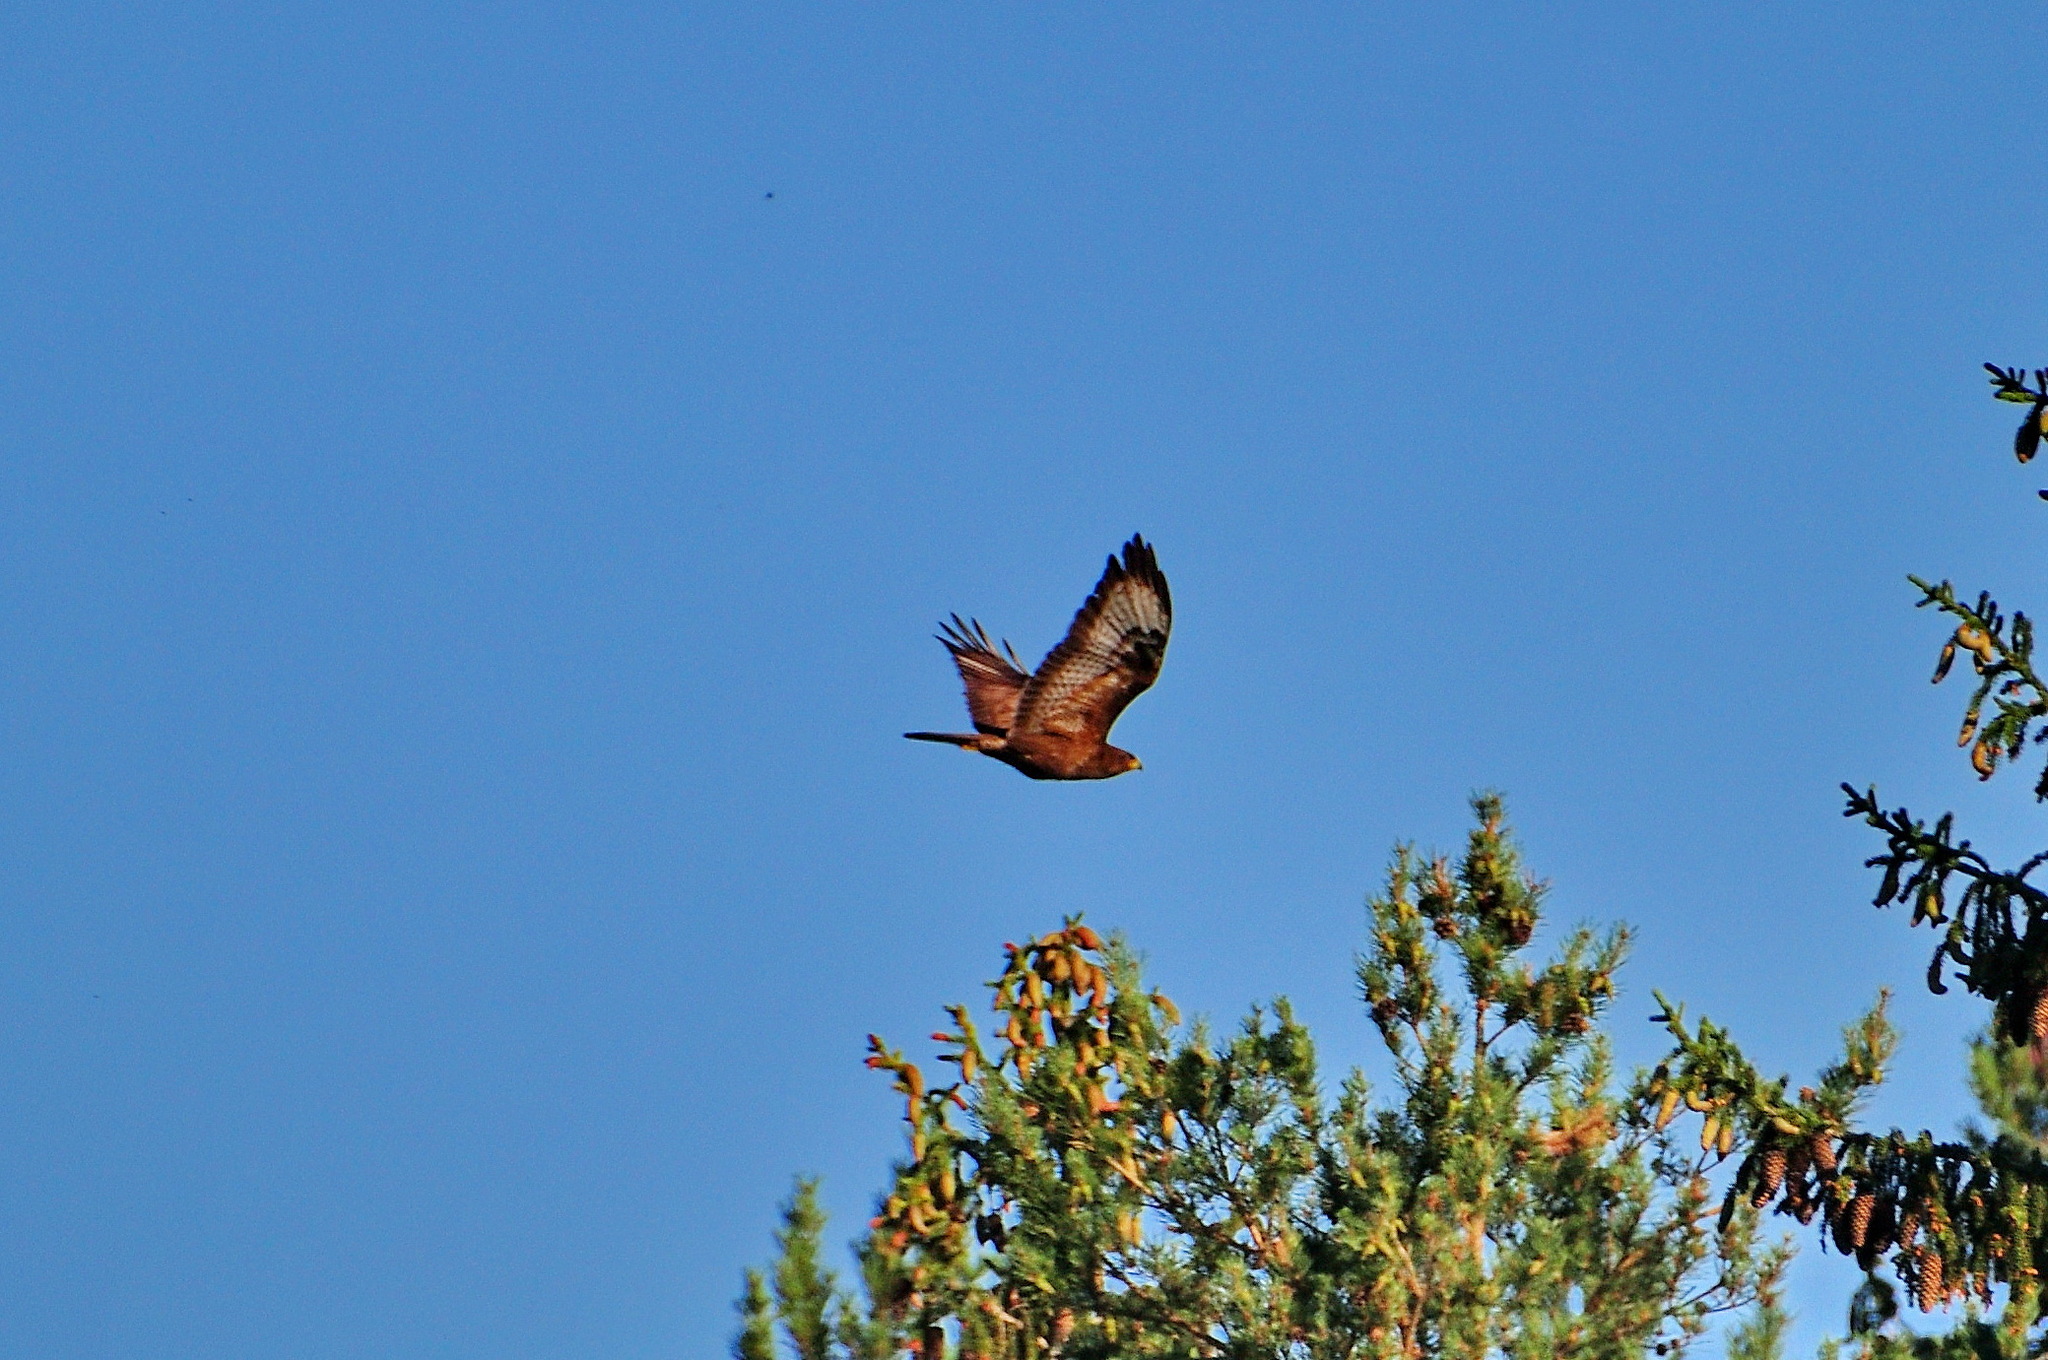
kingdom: Animalia
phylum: Chordata
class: Aves
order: Accipitriformes
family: Accipitridae
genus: Buteo
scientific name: Buteo buteo
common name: Common buzzard
